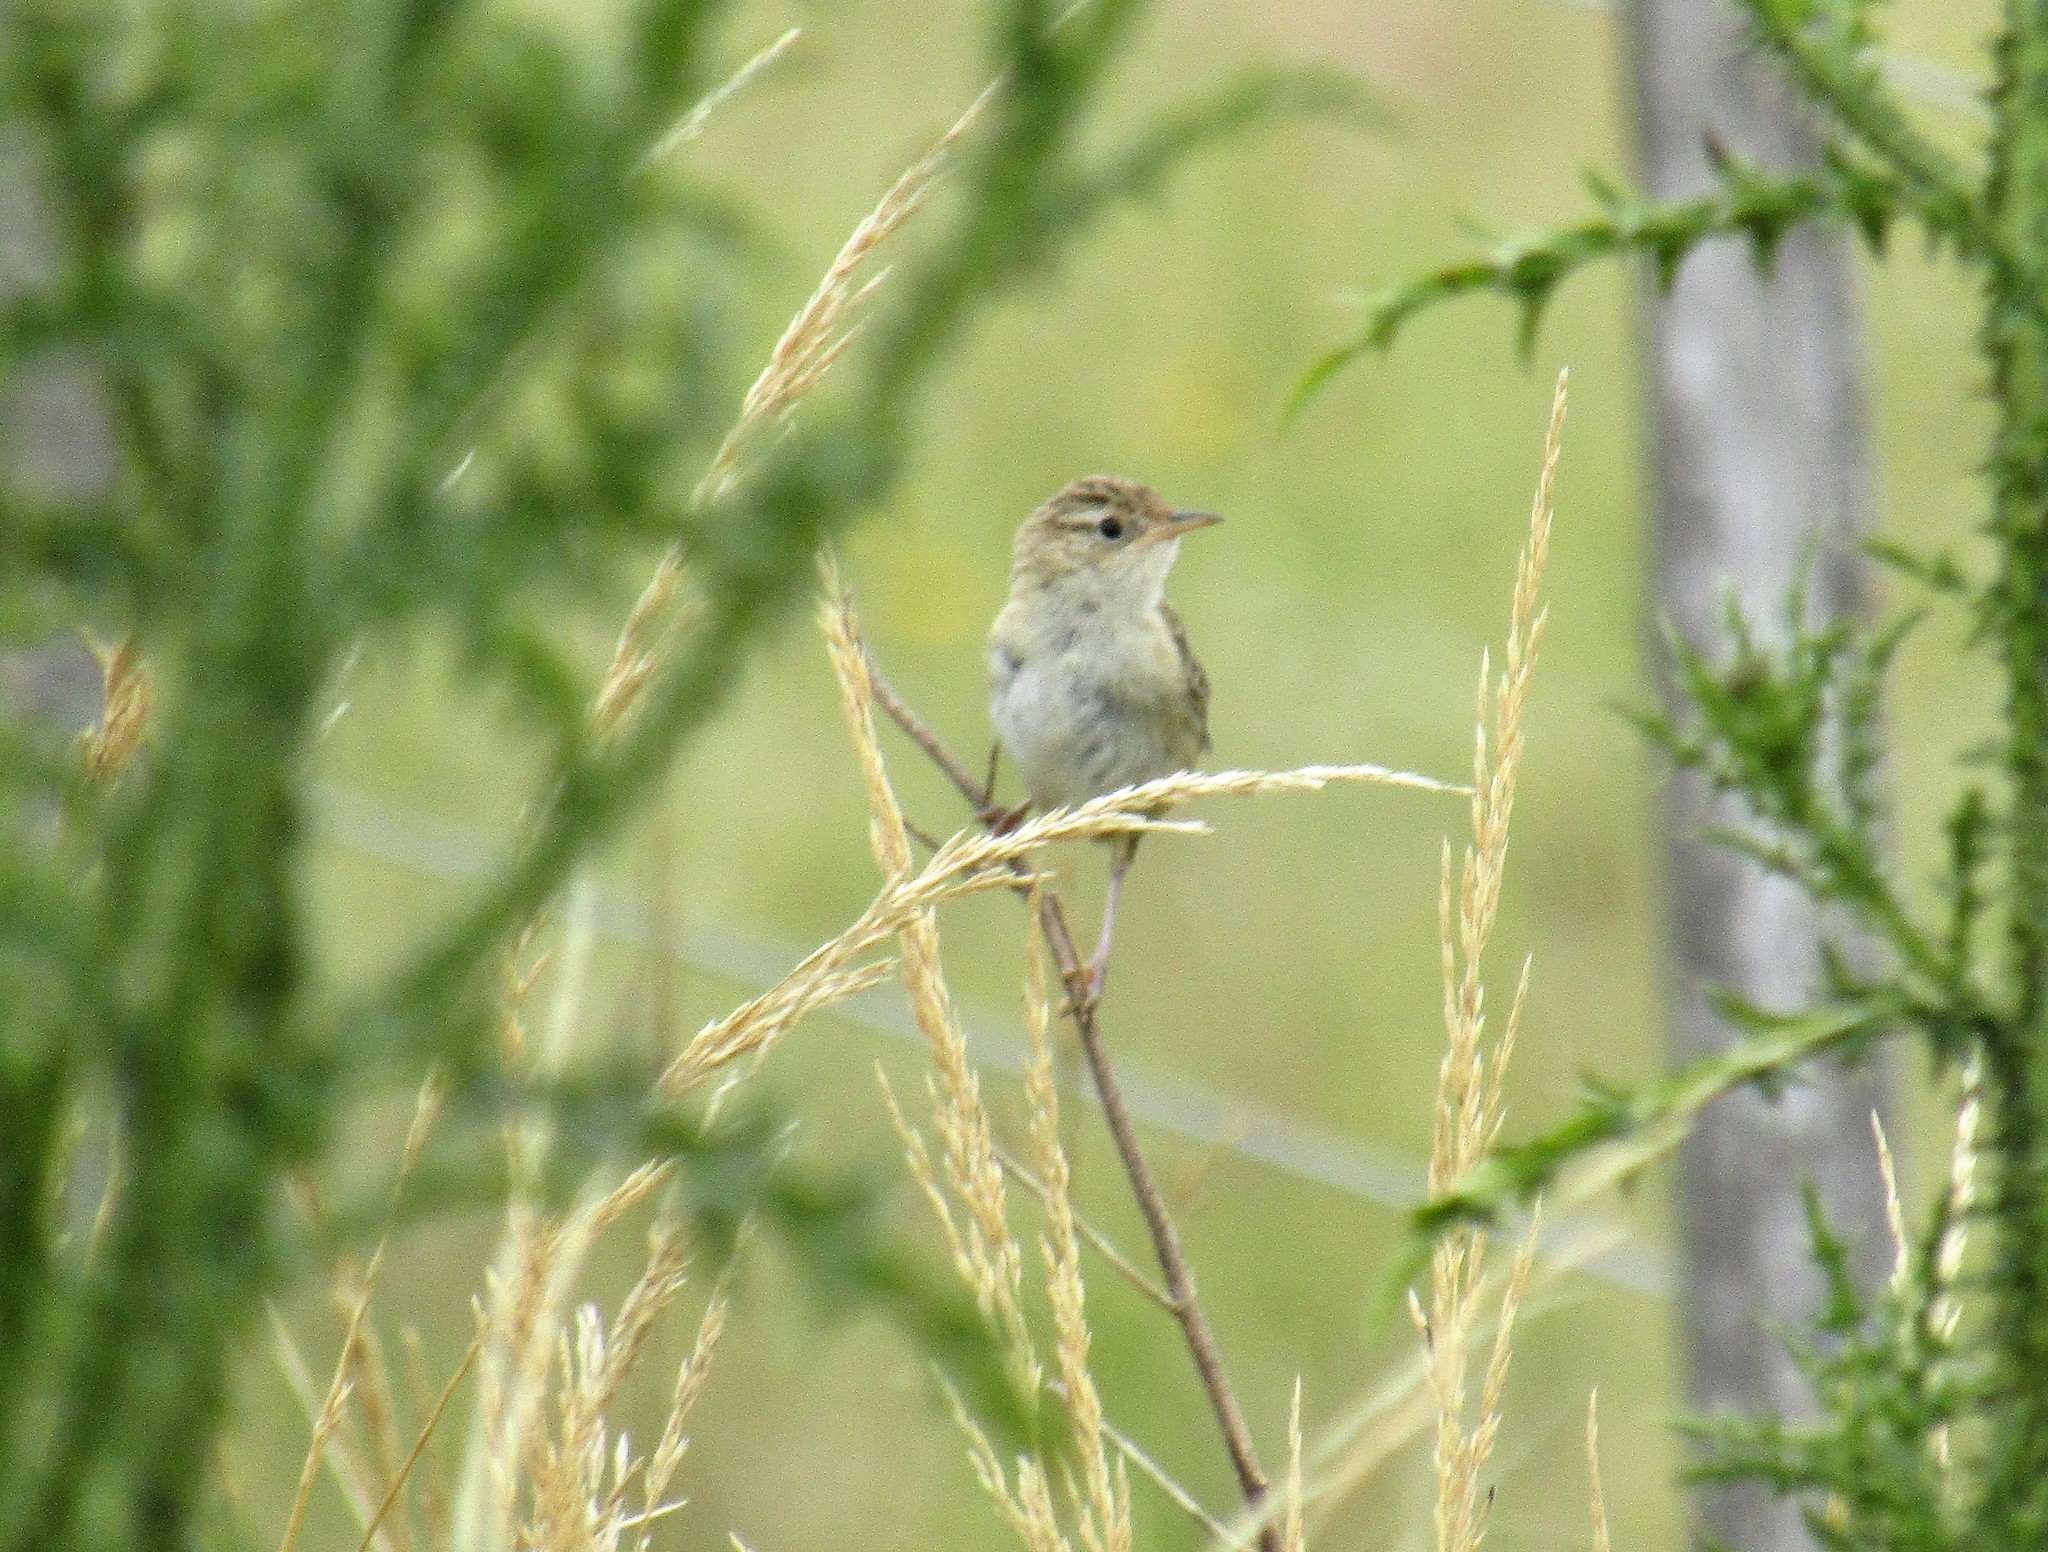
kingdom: Animalia
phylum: Chordata
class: Aves
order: Passeriformes
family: Troglodytidae
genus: Cistothorus
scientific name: Cistothorus platensis
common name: Sedge wren
